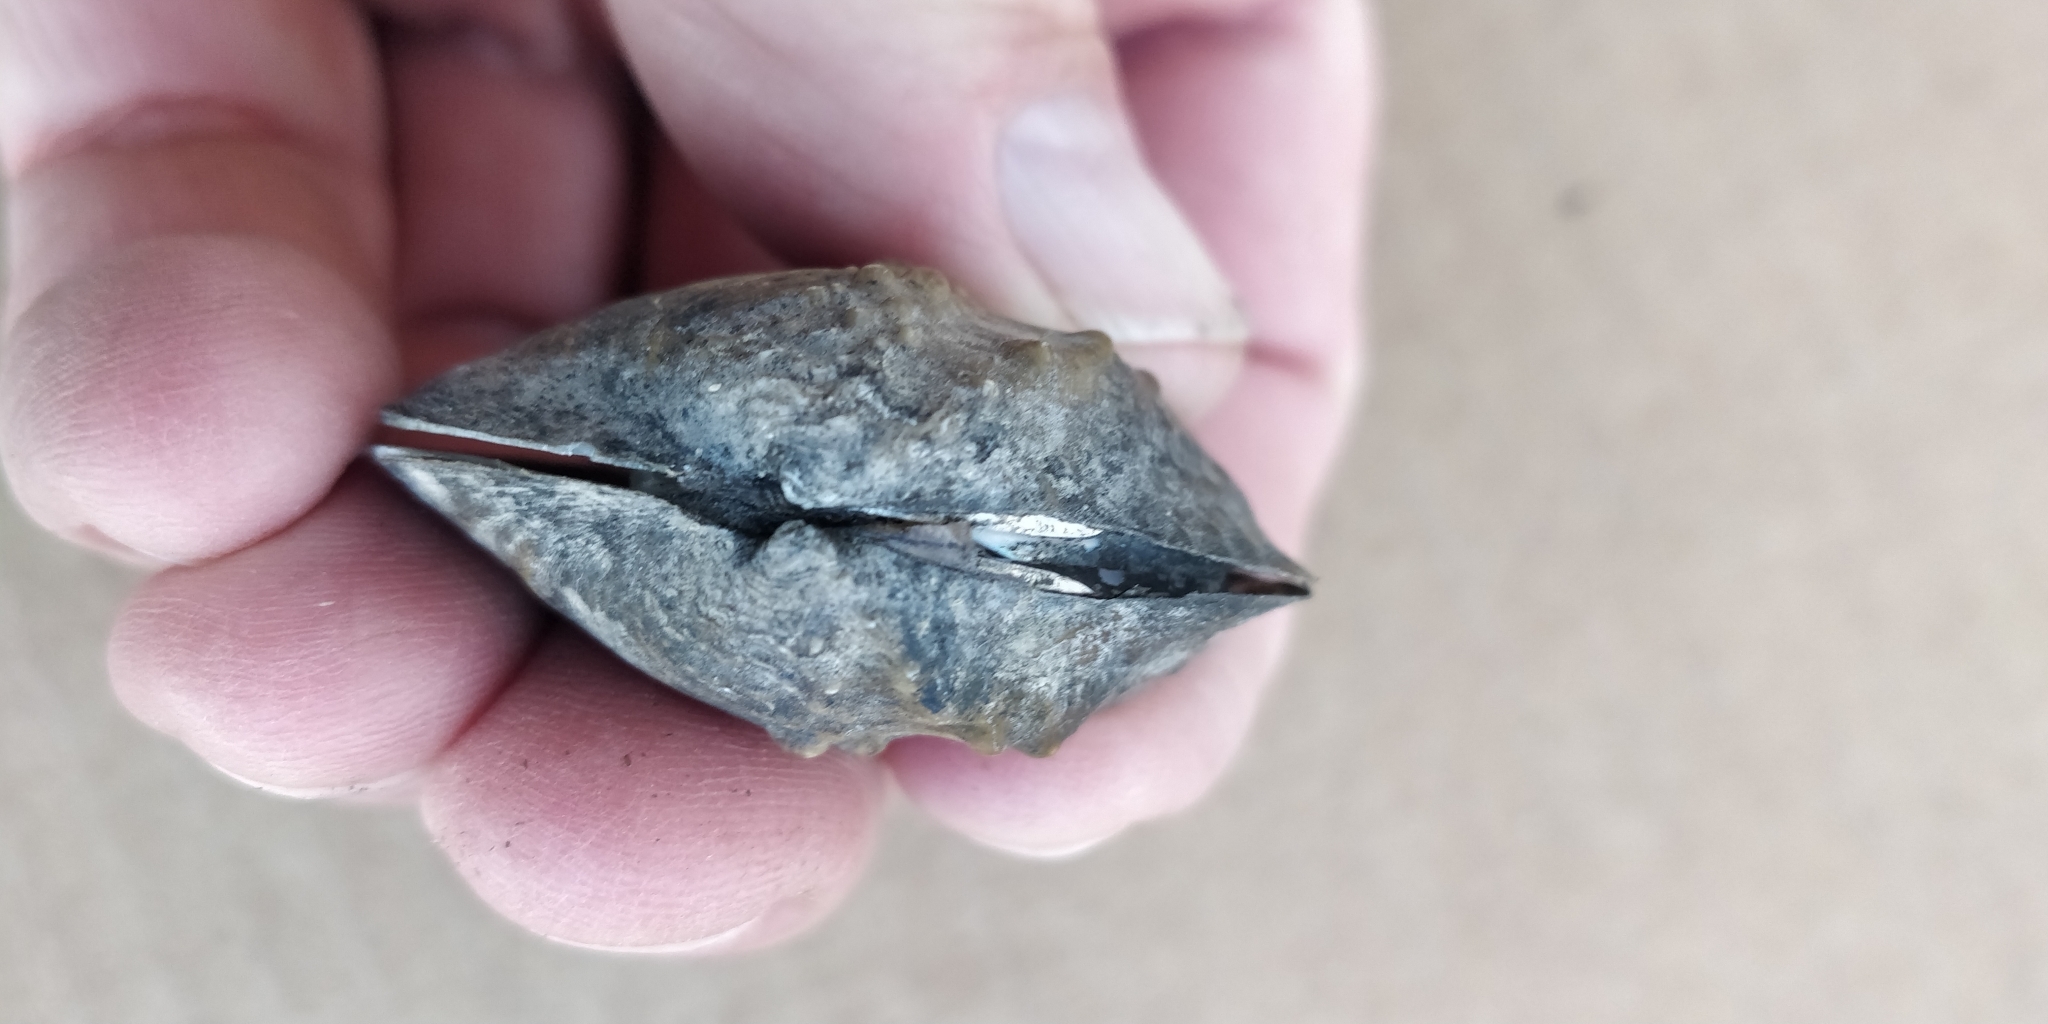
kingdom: Animalia
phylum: Mollusca
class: Bivalvia
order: Unionida
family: Unionidae
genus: Quadrula
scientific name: Quadrula quadrula
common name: Mapleleaf
